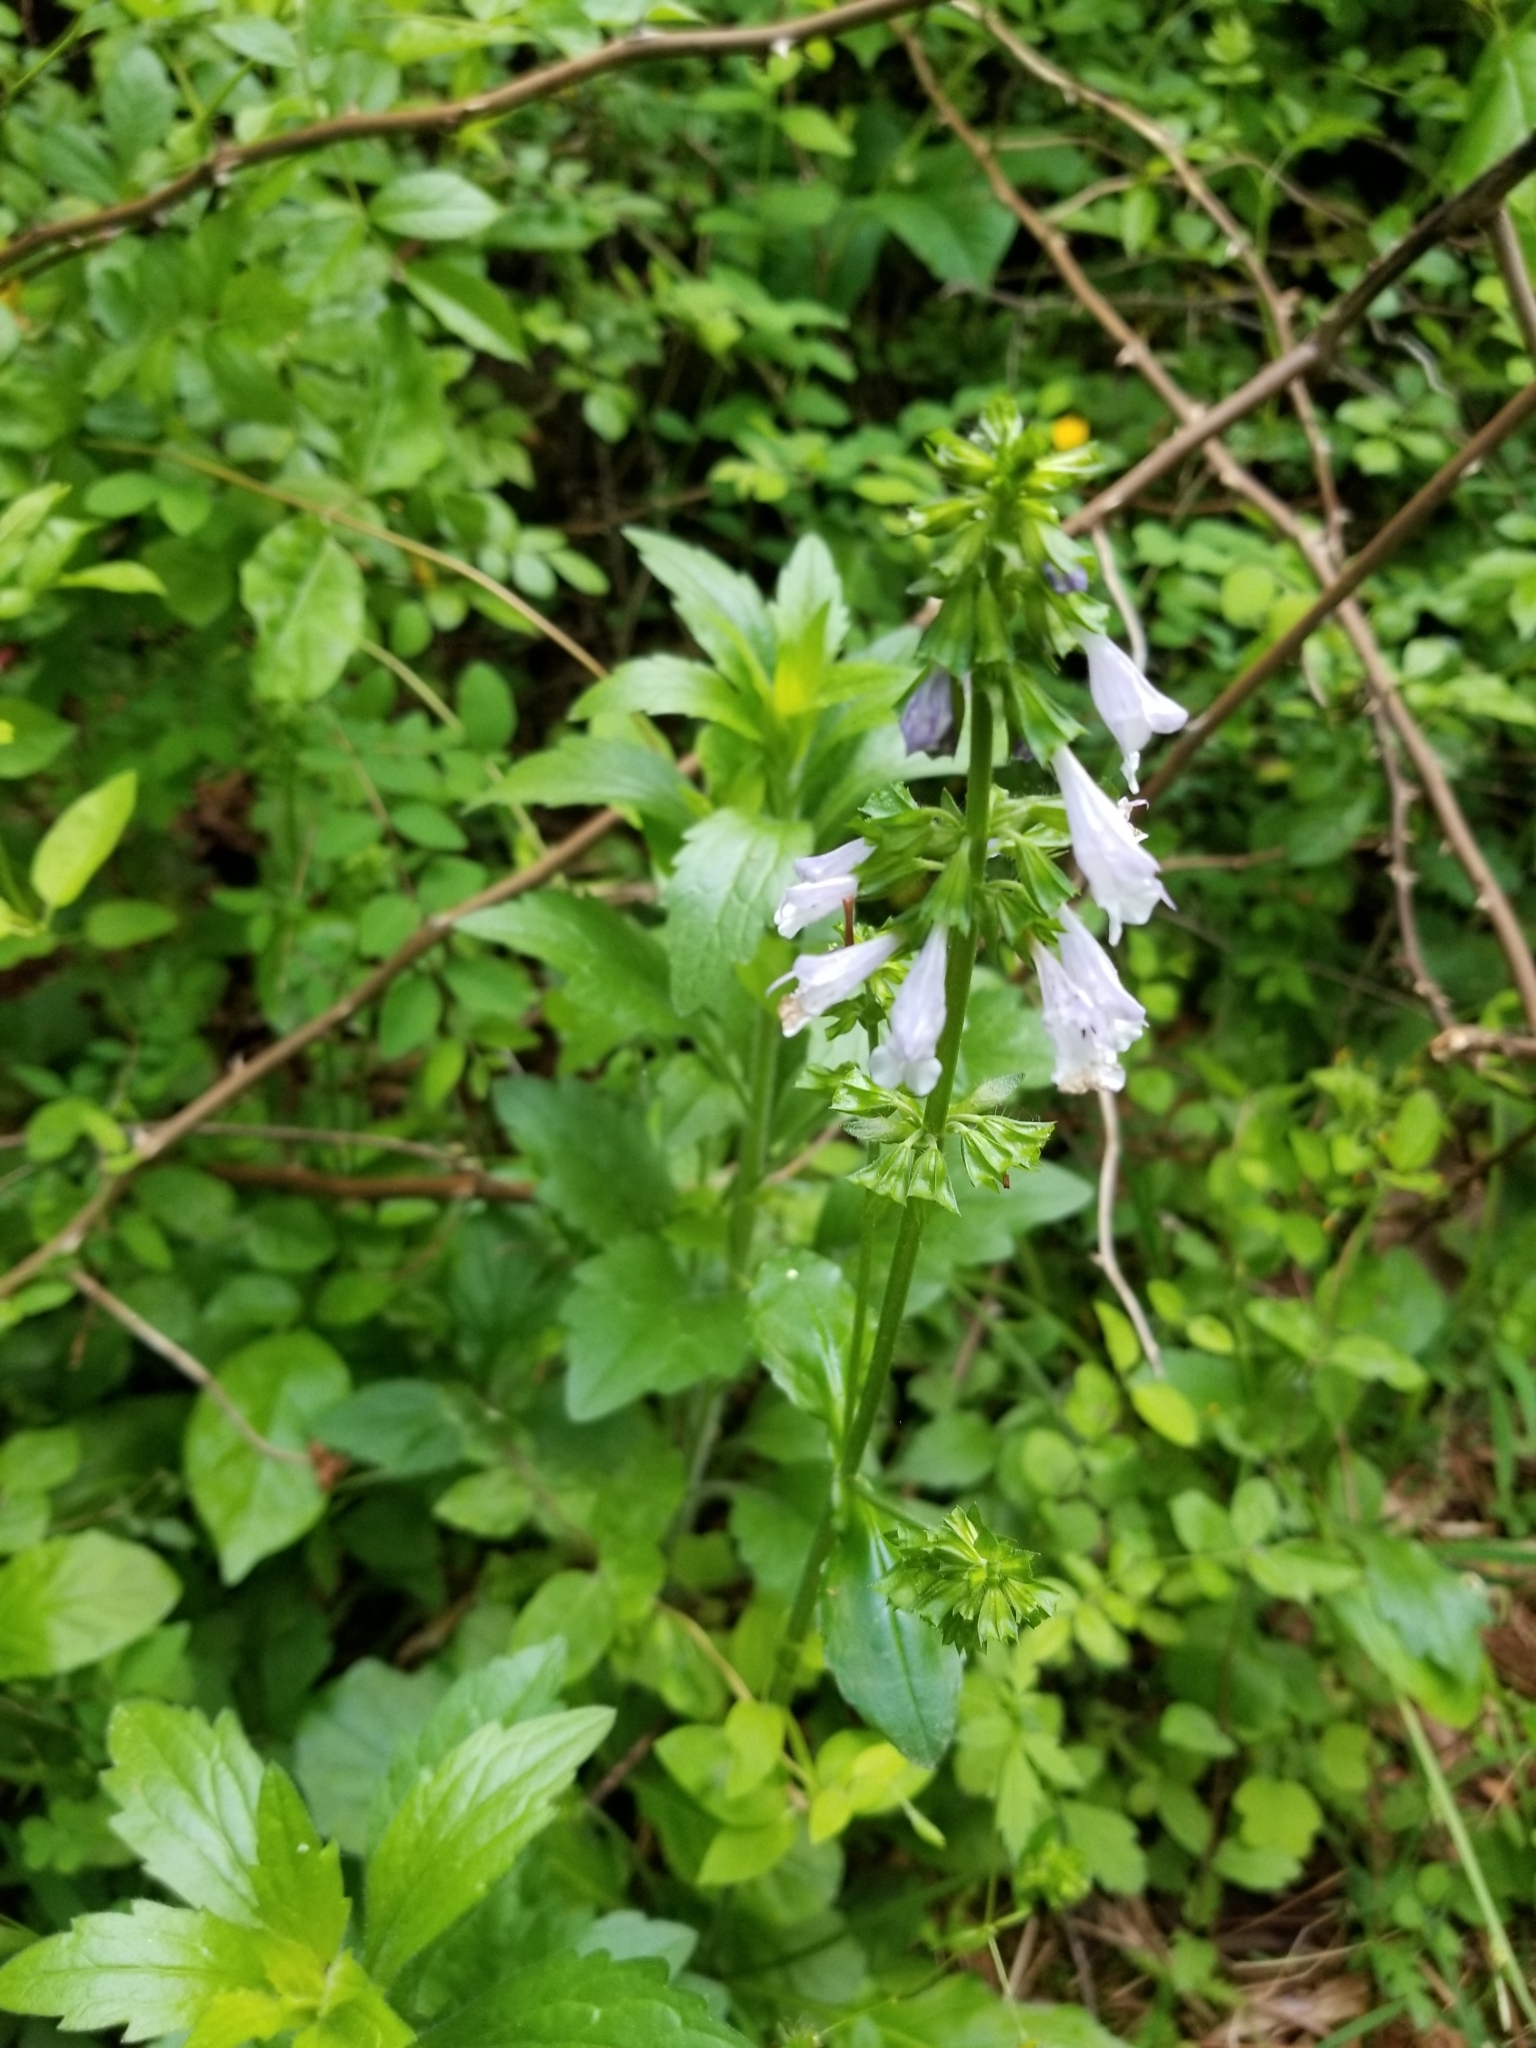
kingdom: Plantae
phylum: Tracheophyta
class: Magnoliopsida
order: Lamiales
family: Lamiaceae
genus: Salvia
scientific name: Salvia lyrata
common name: Cancerweed
